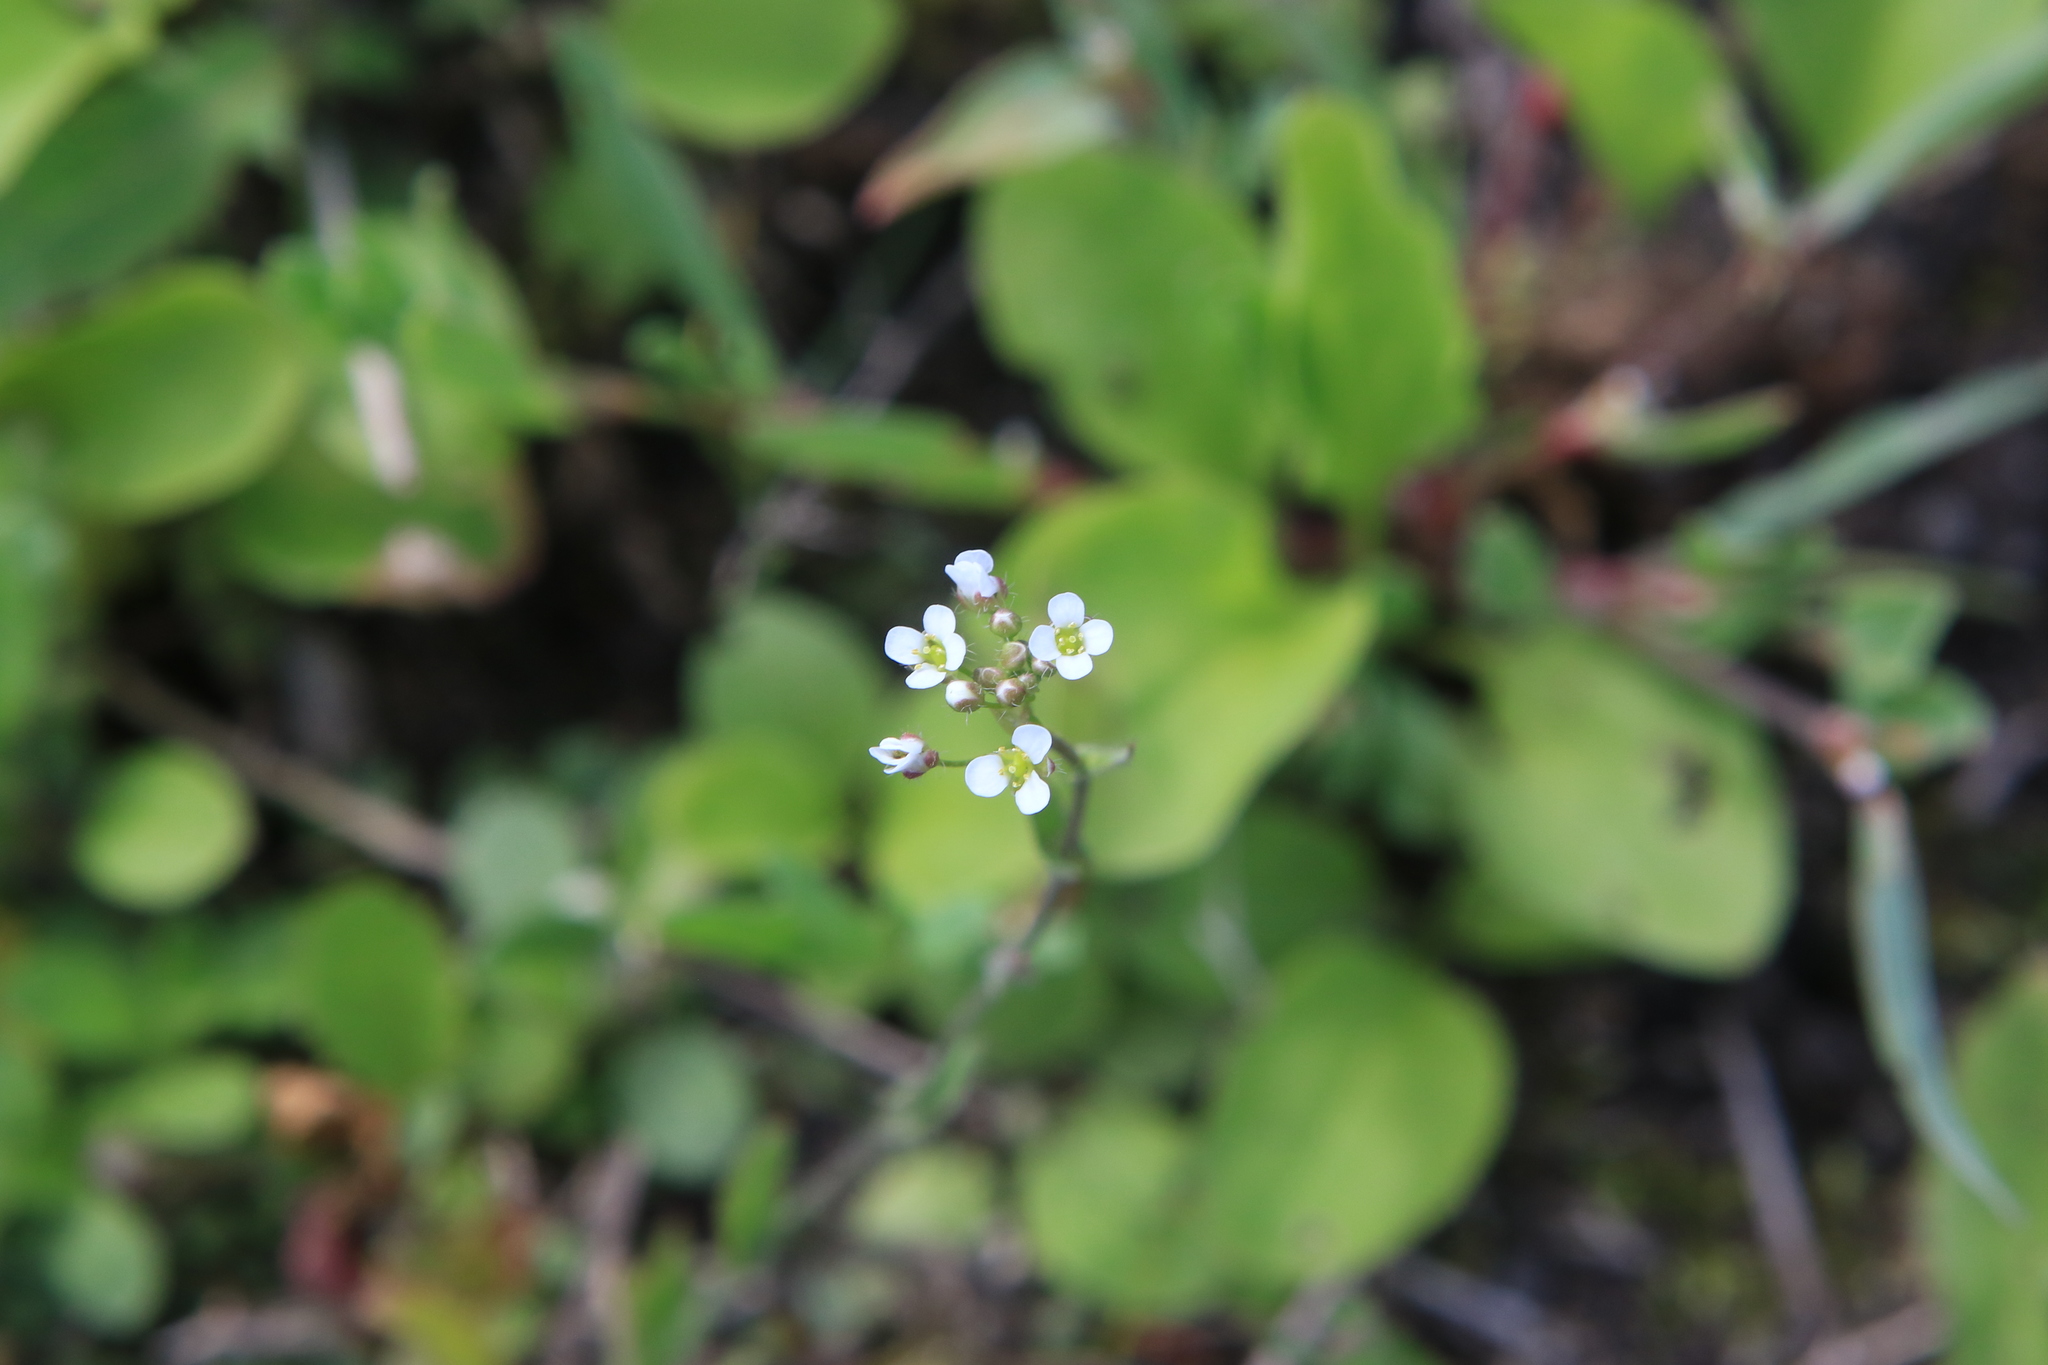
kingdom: Plantae
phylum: Tracheophyta
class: Magnoliopsida
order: Brassicales
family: Brassicaceae
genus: Capsella
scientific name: Capsella bursa-pastoris
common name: Shepherd's purse
